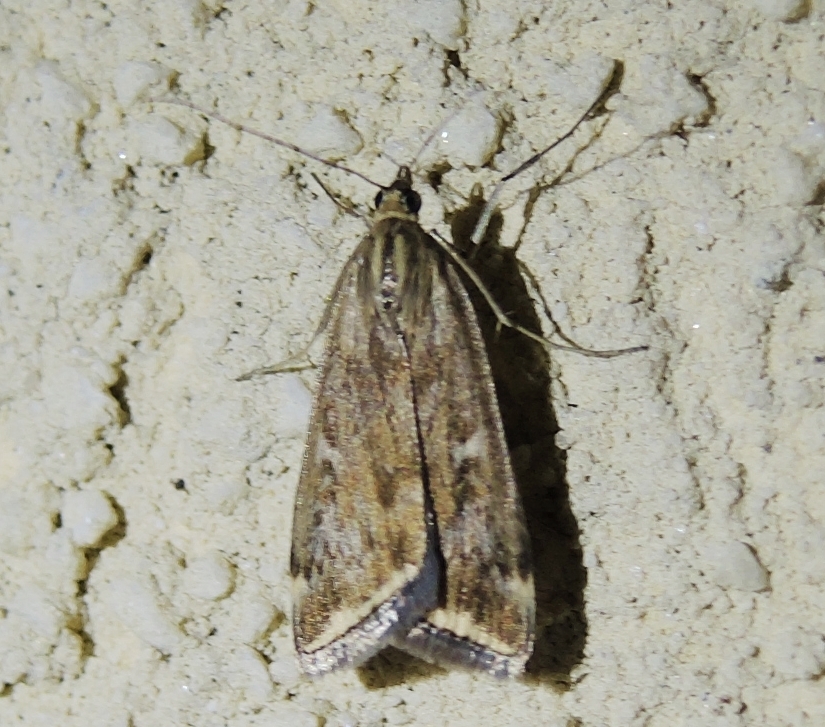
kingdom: Animalia
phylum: Arthropoda
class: Insecta
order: Lepidoptera
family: Crambidae
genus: Loxostege
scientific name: Loxostege sticticalis
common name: Crambid moth
